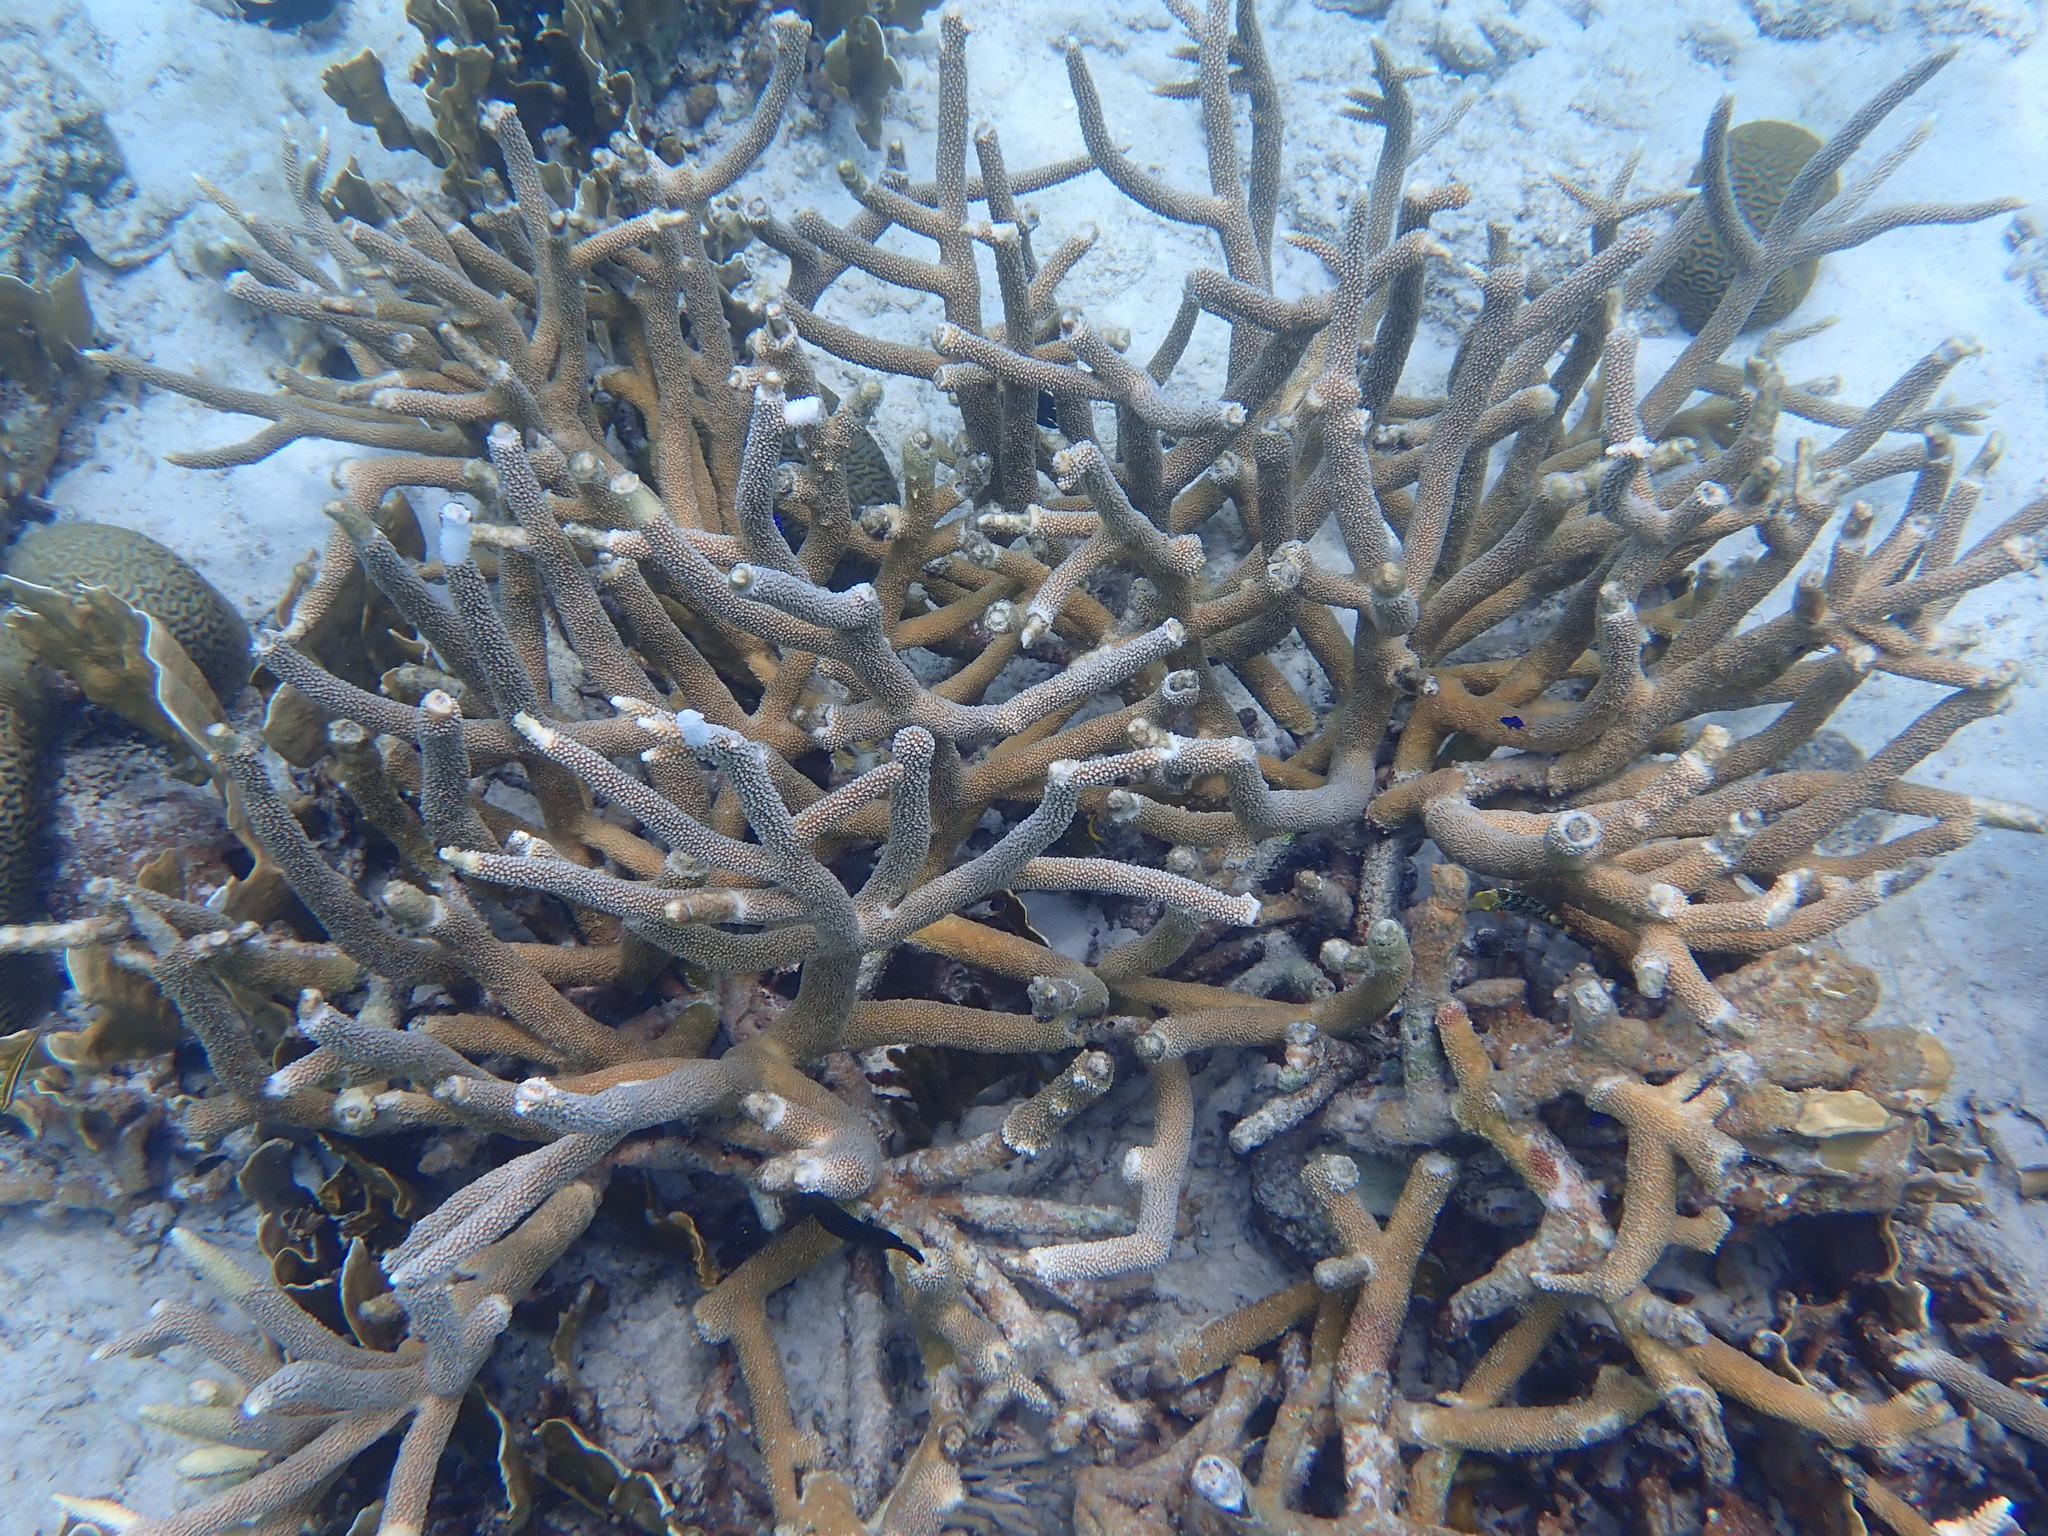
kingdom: Animalia
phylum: Cnidaria
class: Anthozoa
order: Scleractinia
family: Acroporidae
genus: Acropora
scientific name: Acropora cervicornis
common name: Staghorn coral
